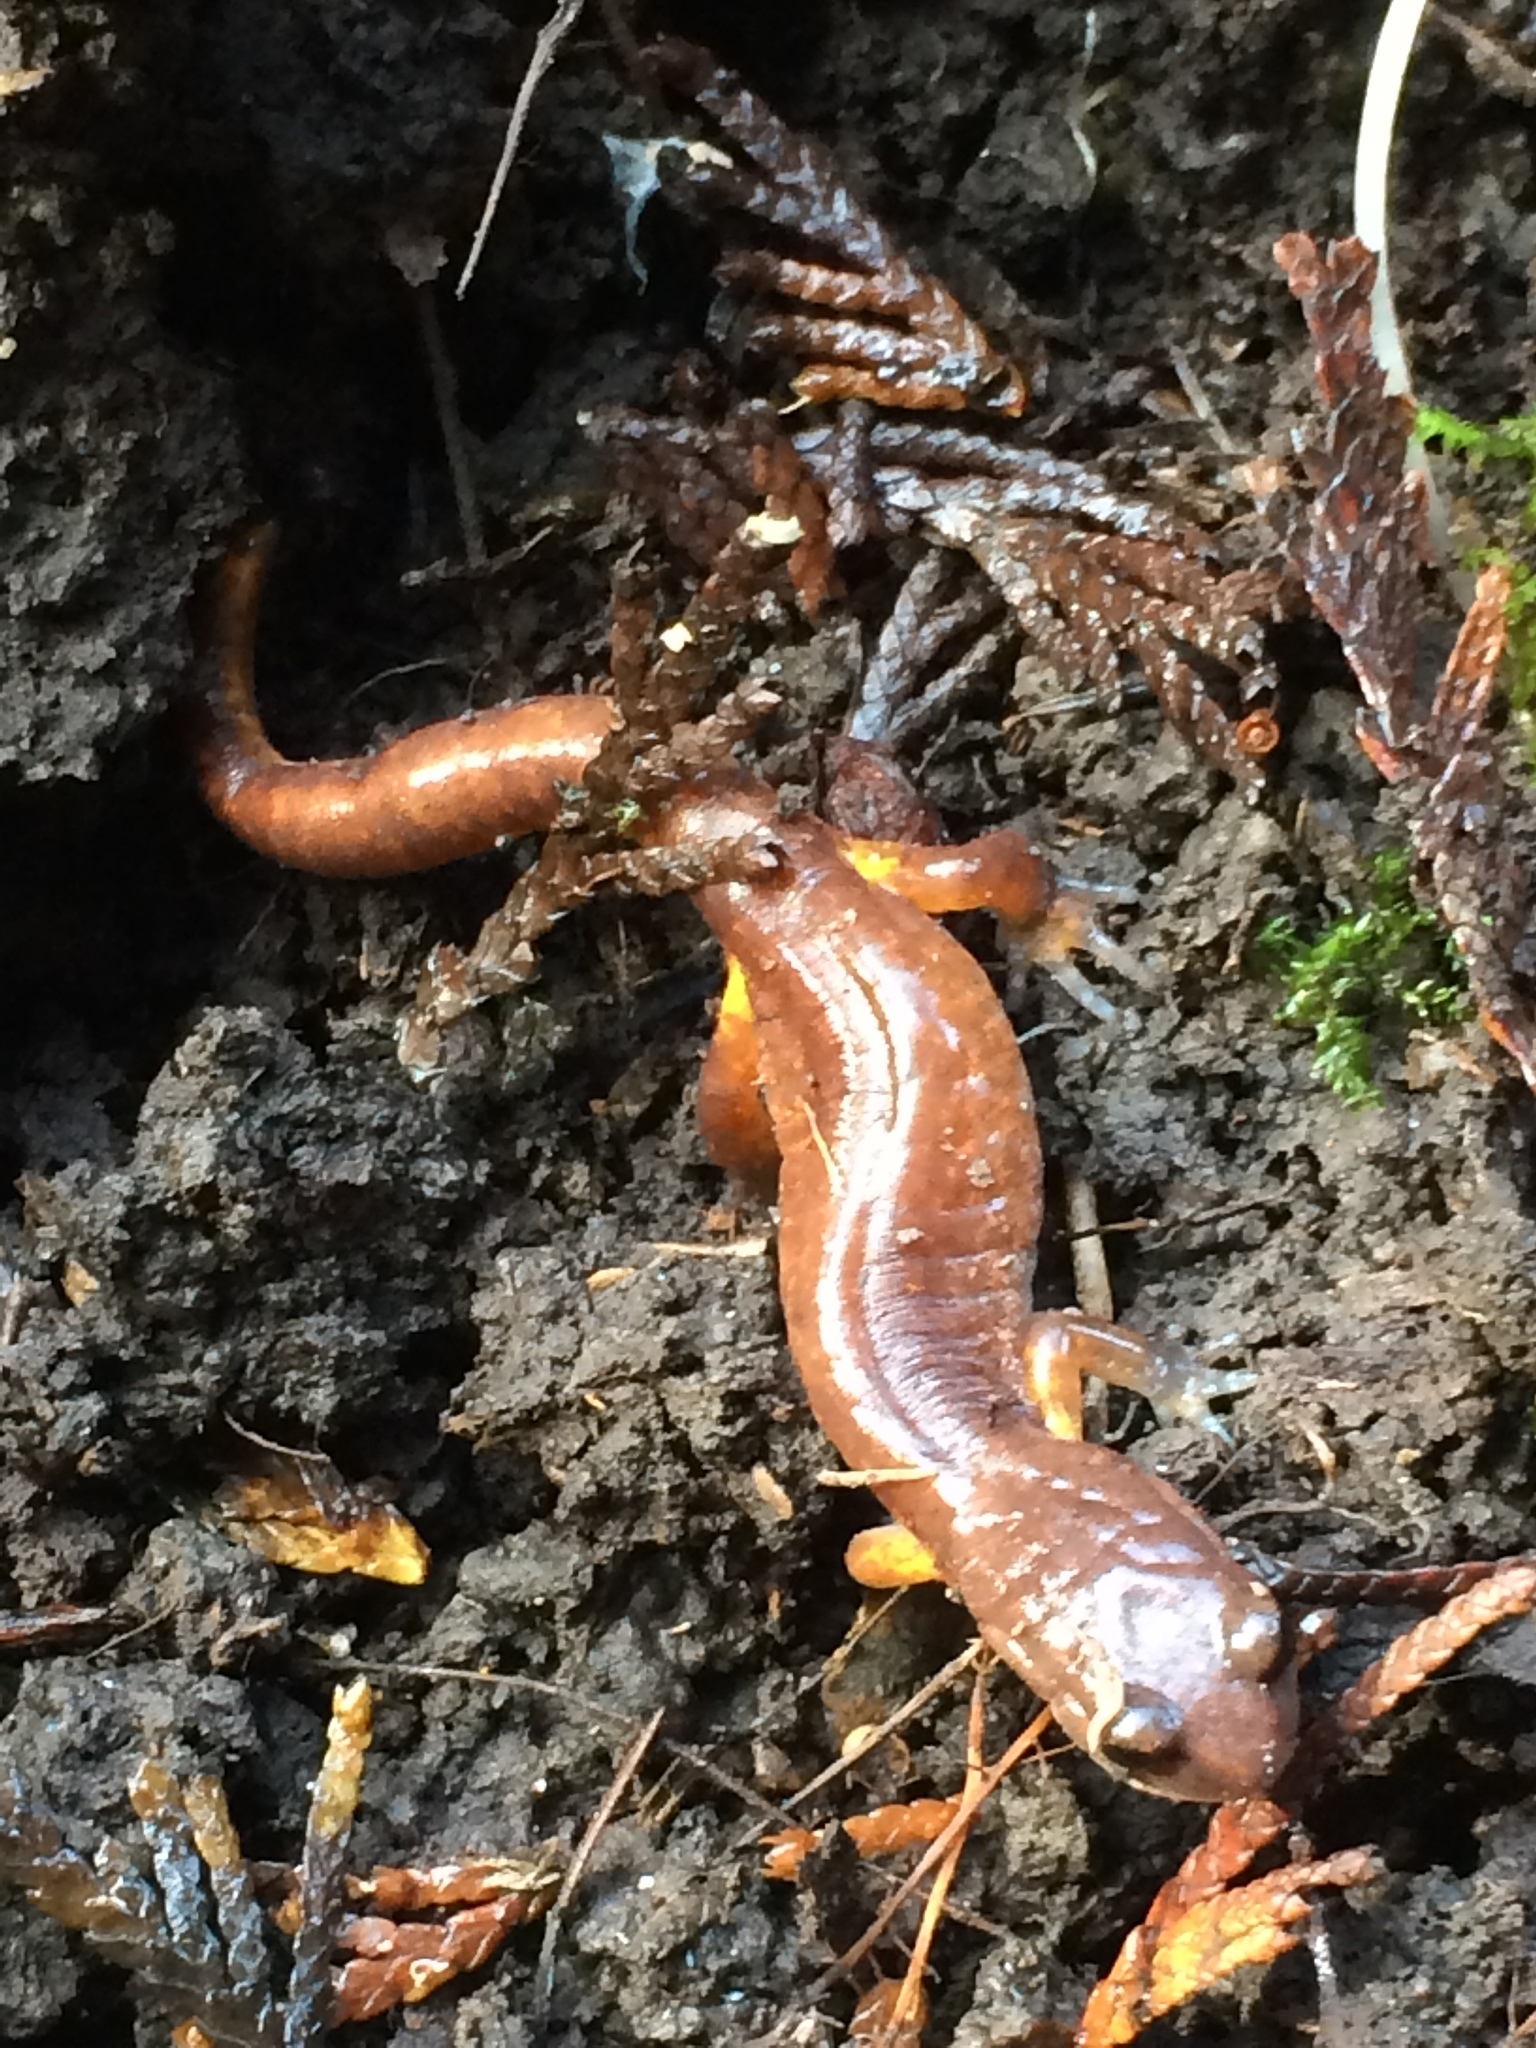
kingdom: Animalia
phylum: Chordata
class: Amphibia
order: Caudata
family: Plethodontidae
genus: Ensatina
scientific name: Ensatina eschscholtzii
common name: Ensatina
